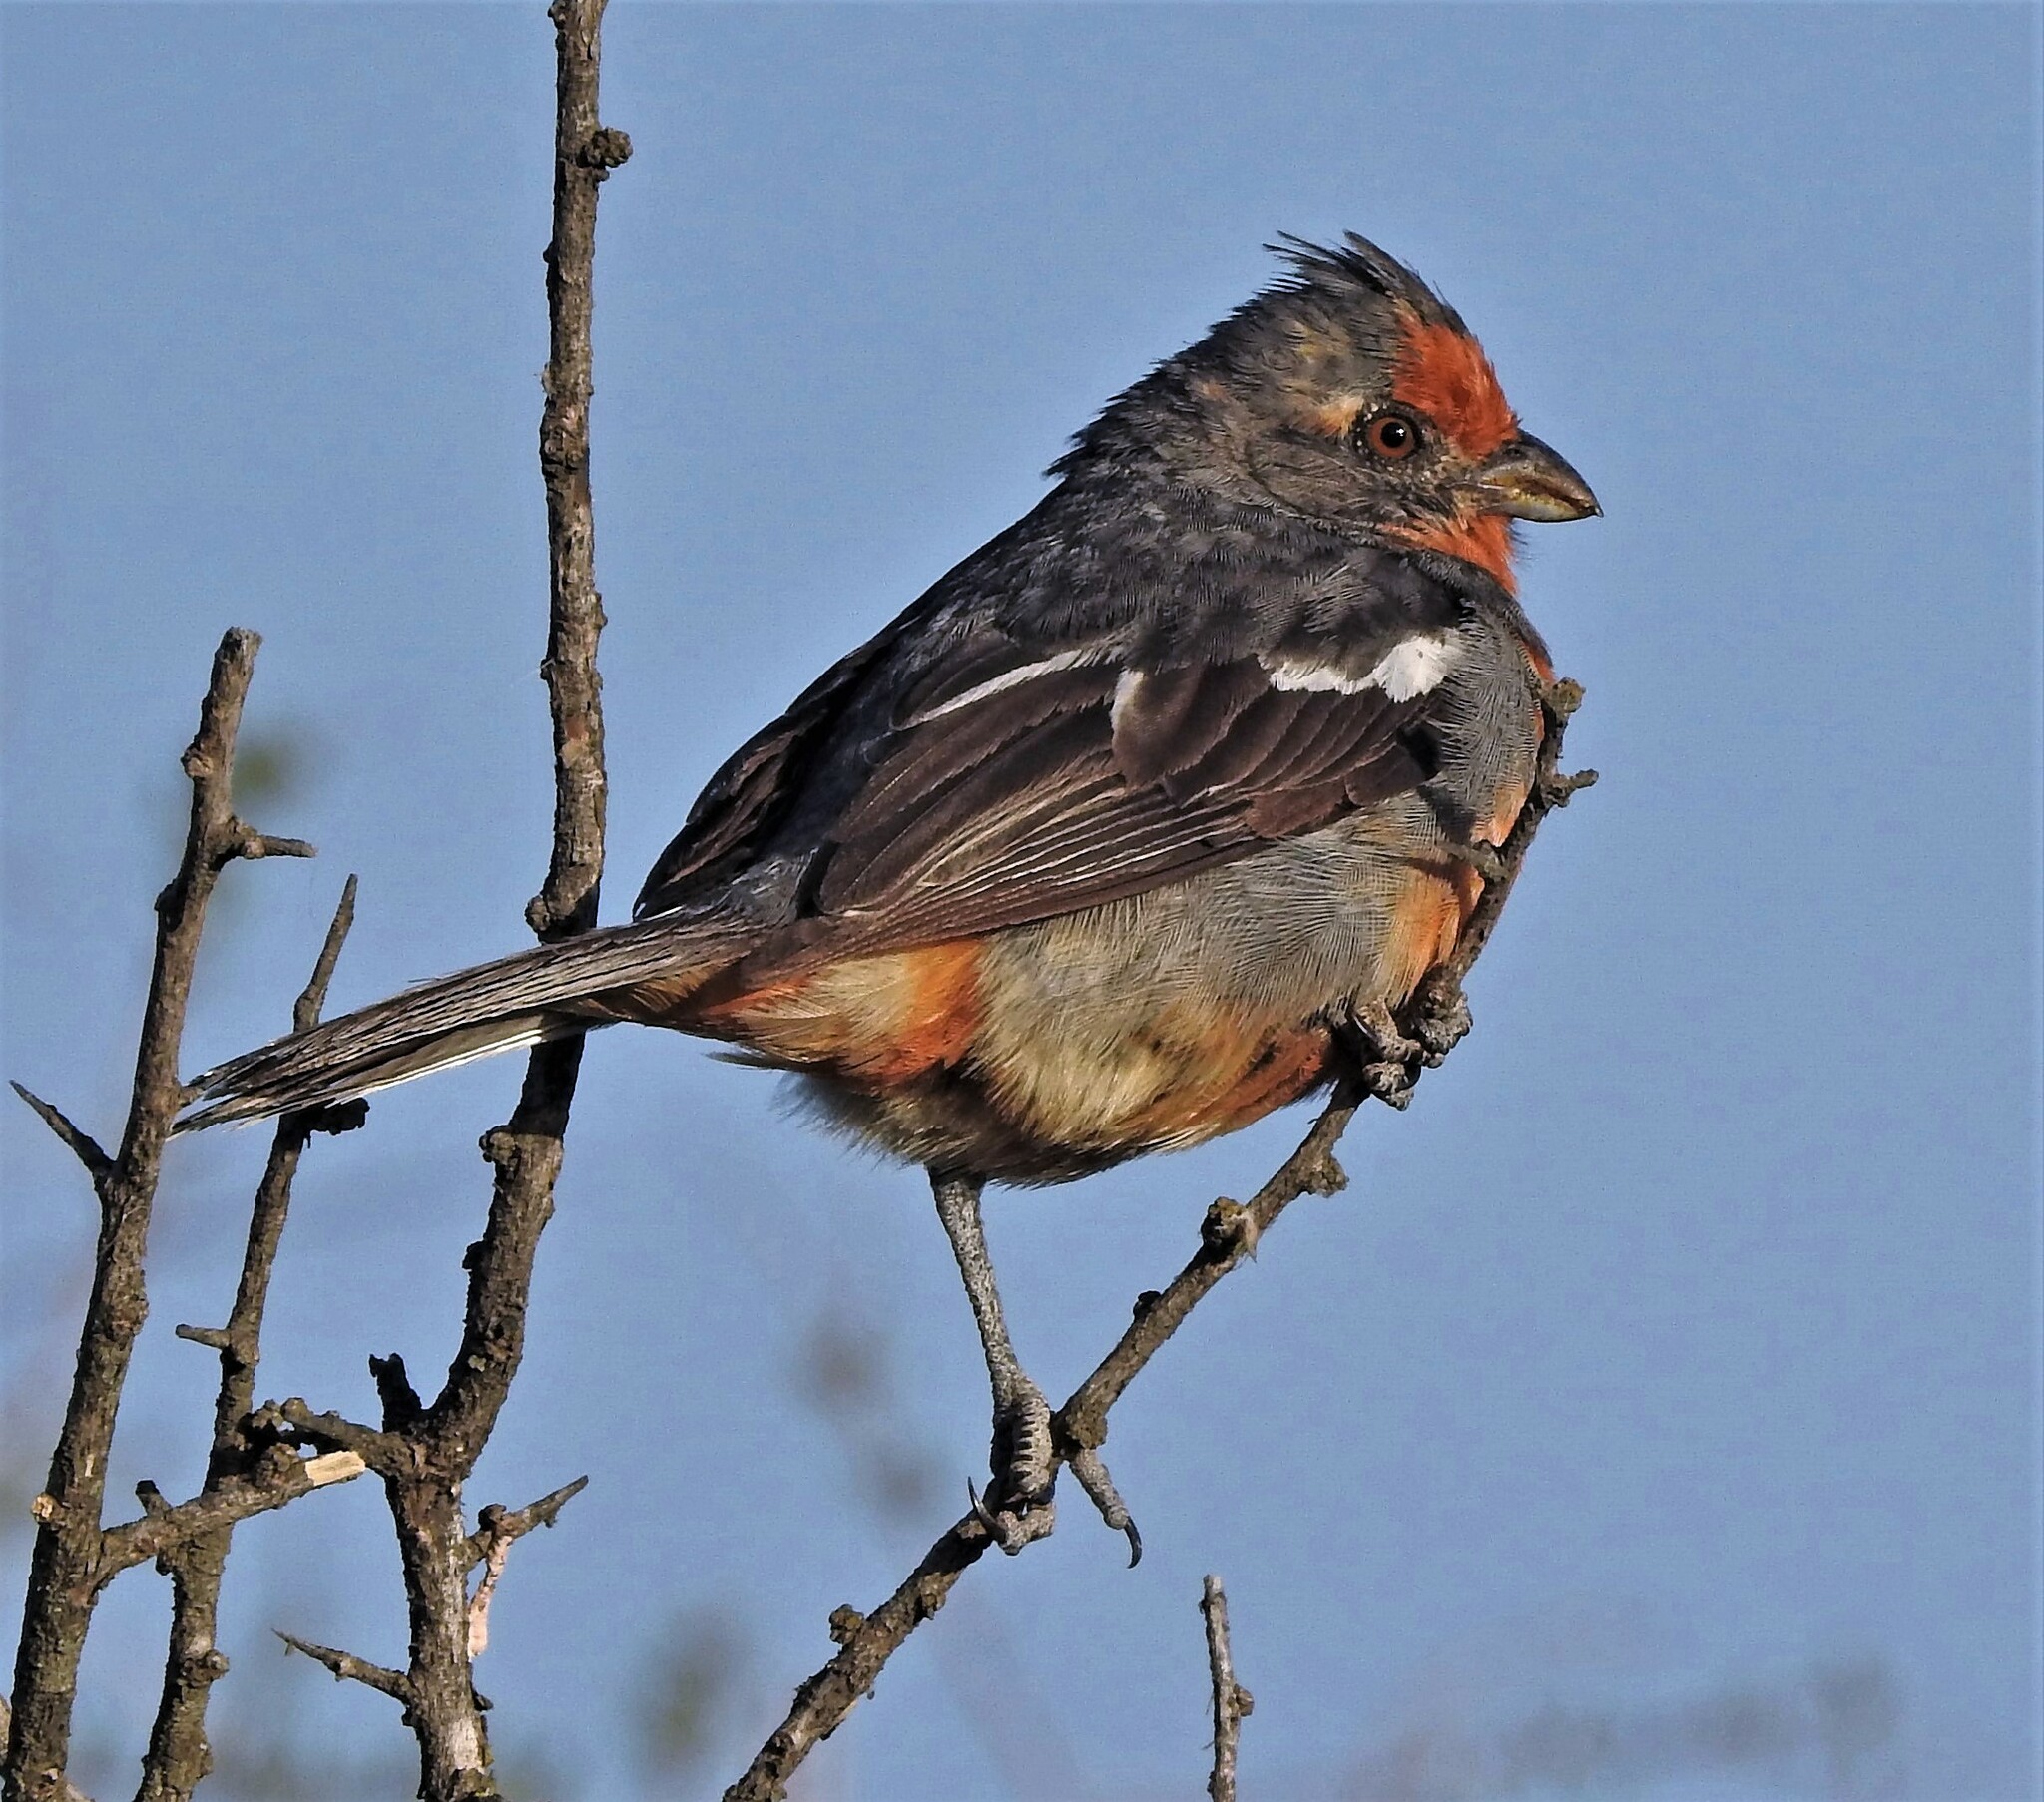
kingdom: Animalia
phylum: Chordata
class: Aves
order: Passeriformes
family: Cotingidae
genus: Phytotoma
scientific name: Phytotoma rutila
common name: White-tipped plantcutter
